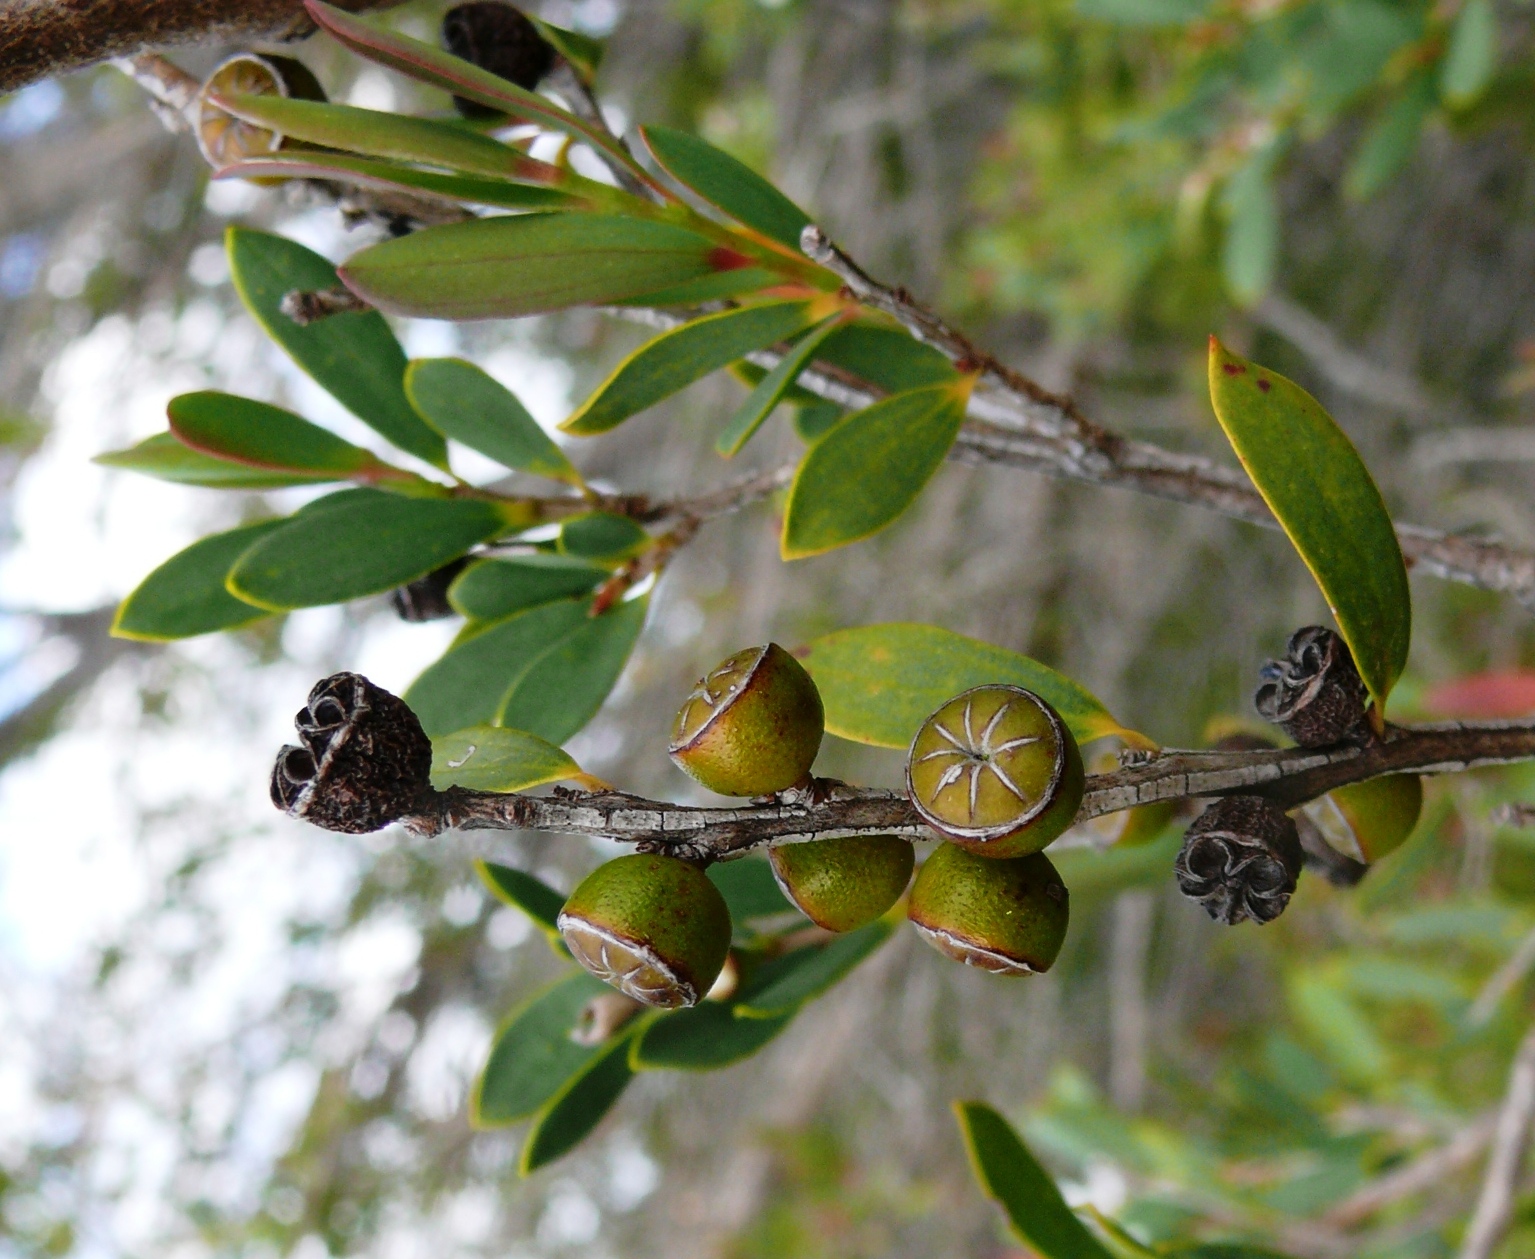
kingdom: Plantae
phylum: Tracheophyta
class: Magnoliopsida
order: Myrtales
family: Myrtaceae
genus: Leptospermum
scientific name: Leptospermum laevigatum
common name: Australian teatree
